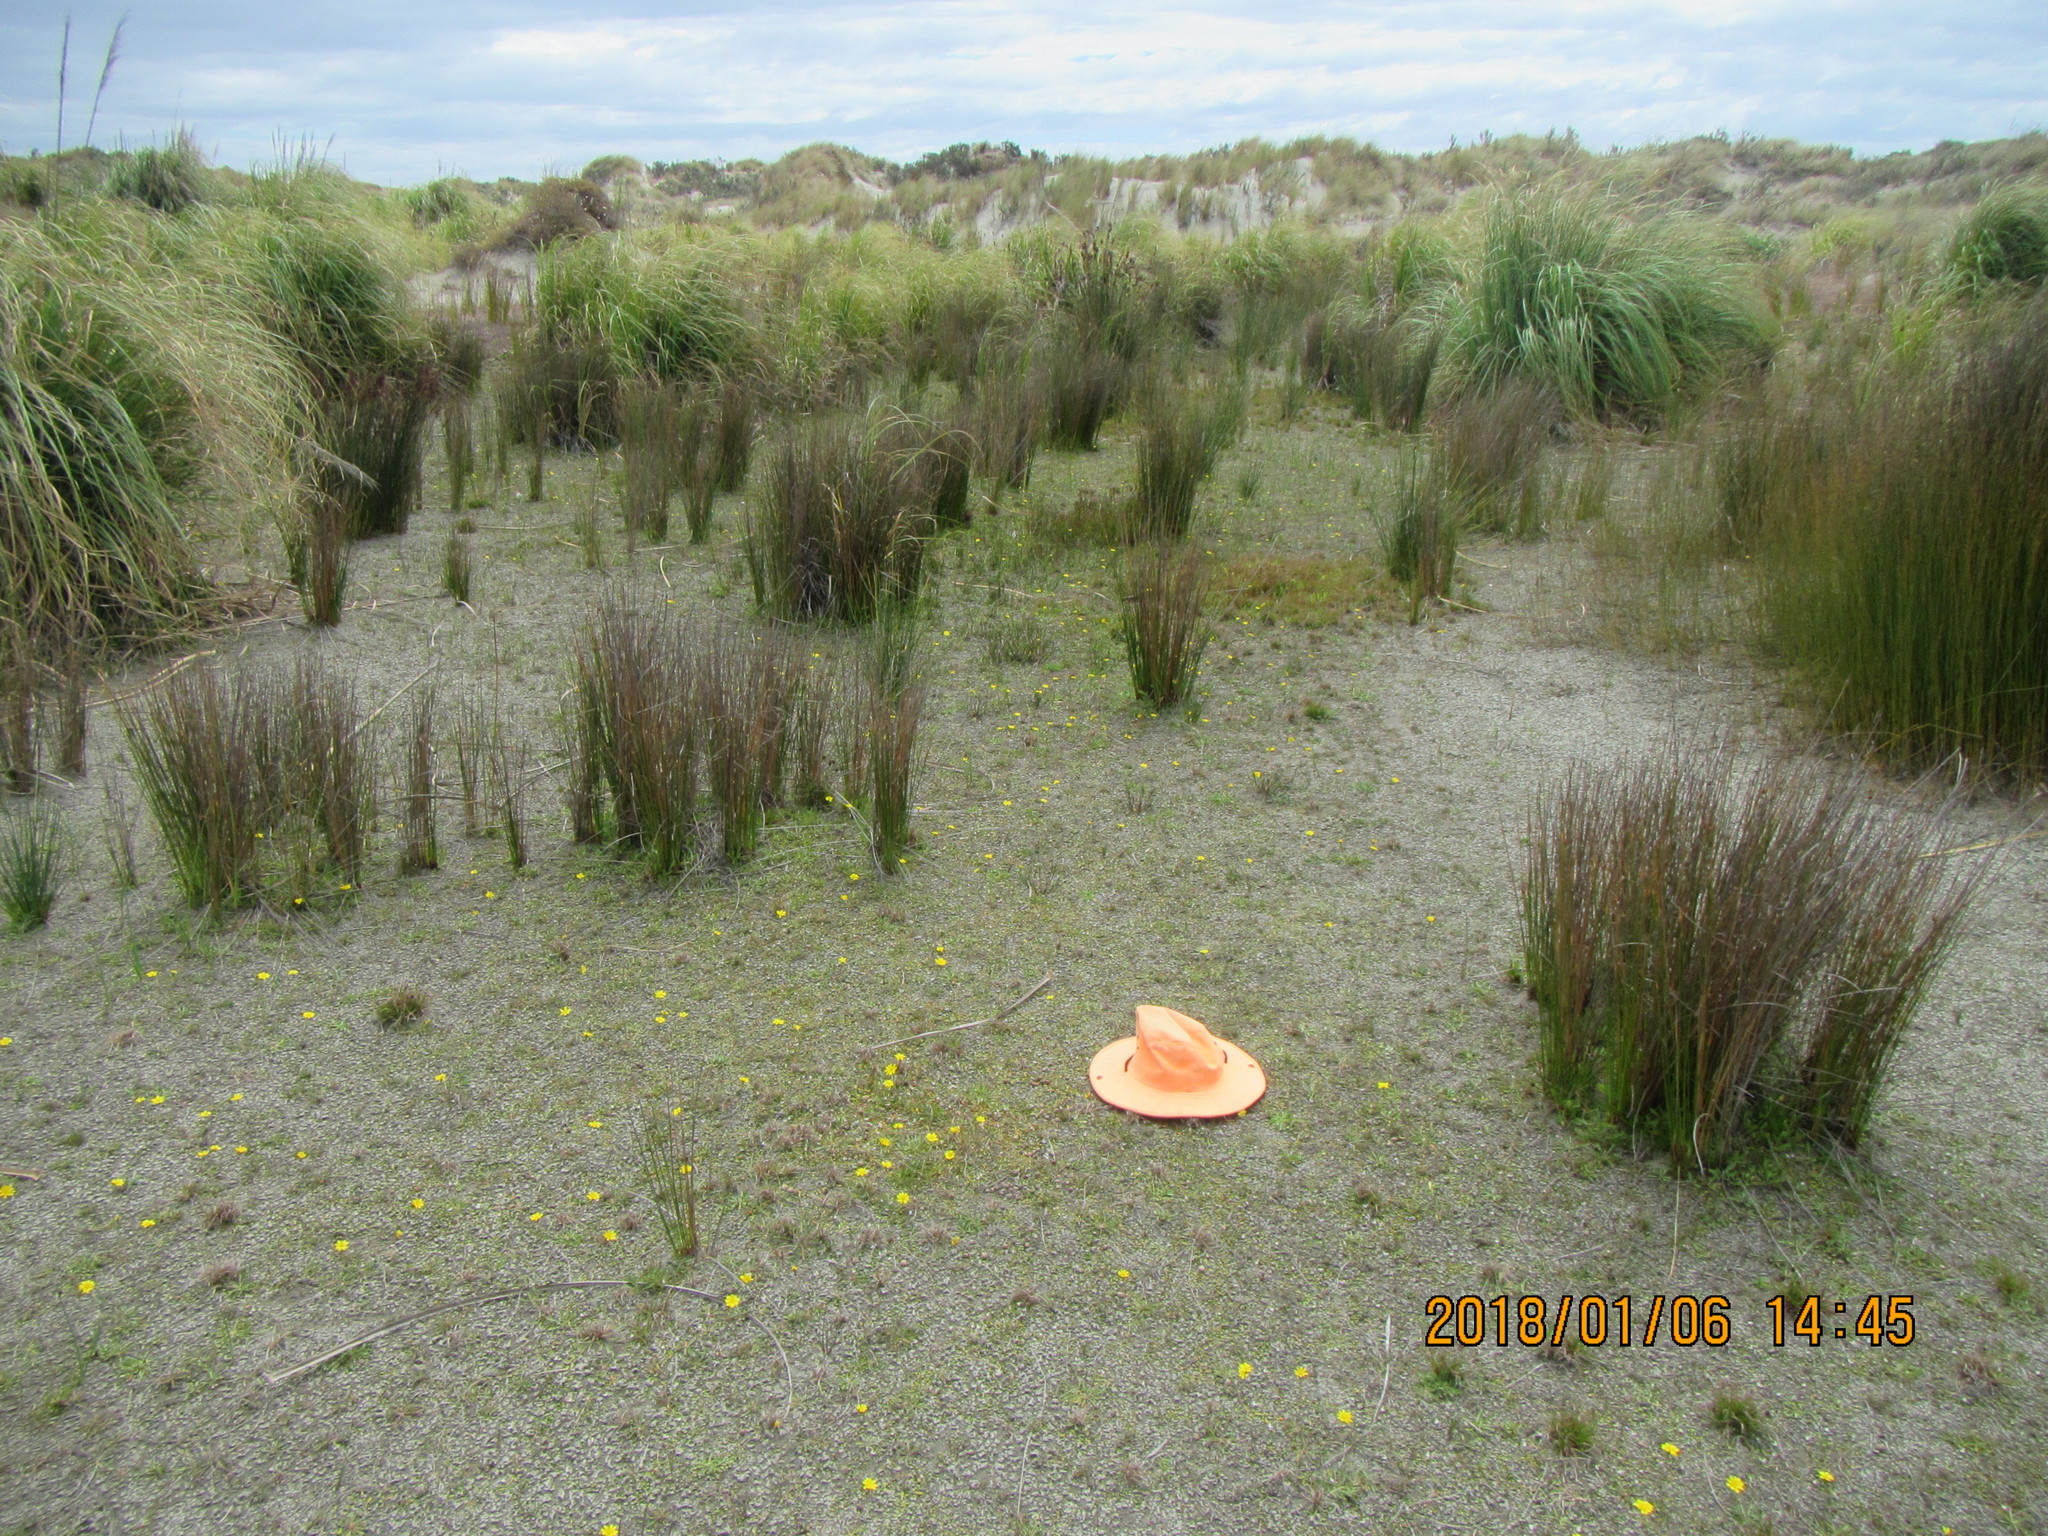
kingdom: Plantae
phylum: Tracheophyta
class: Magnoliopsida
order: Asterales
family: Goodeniaceae
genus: Goodenia
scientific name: Goodenia heenanii
